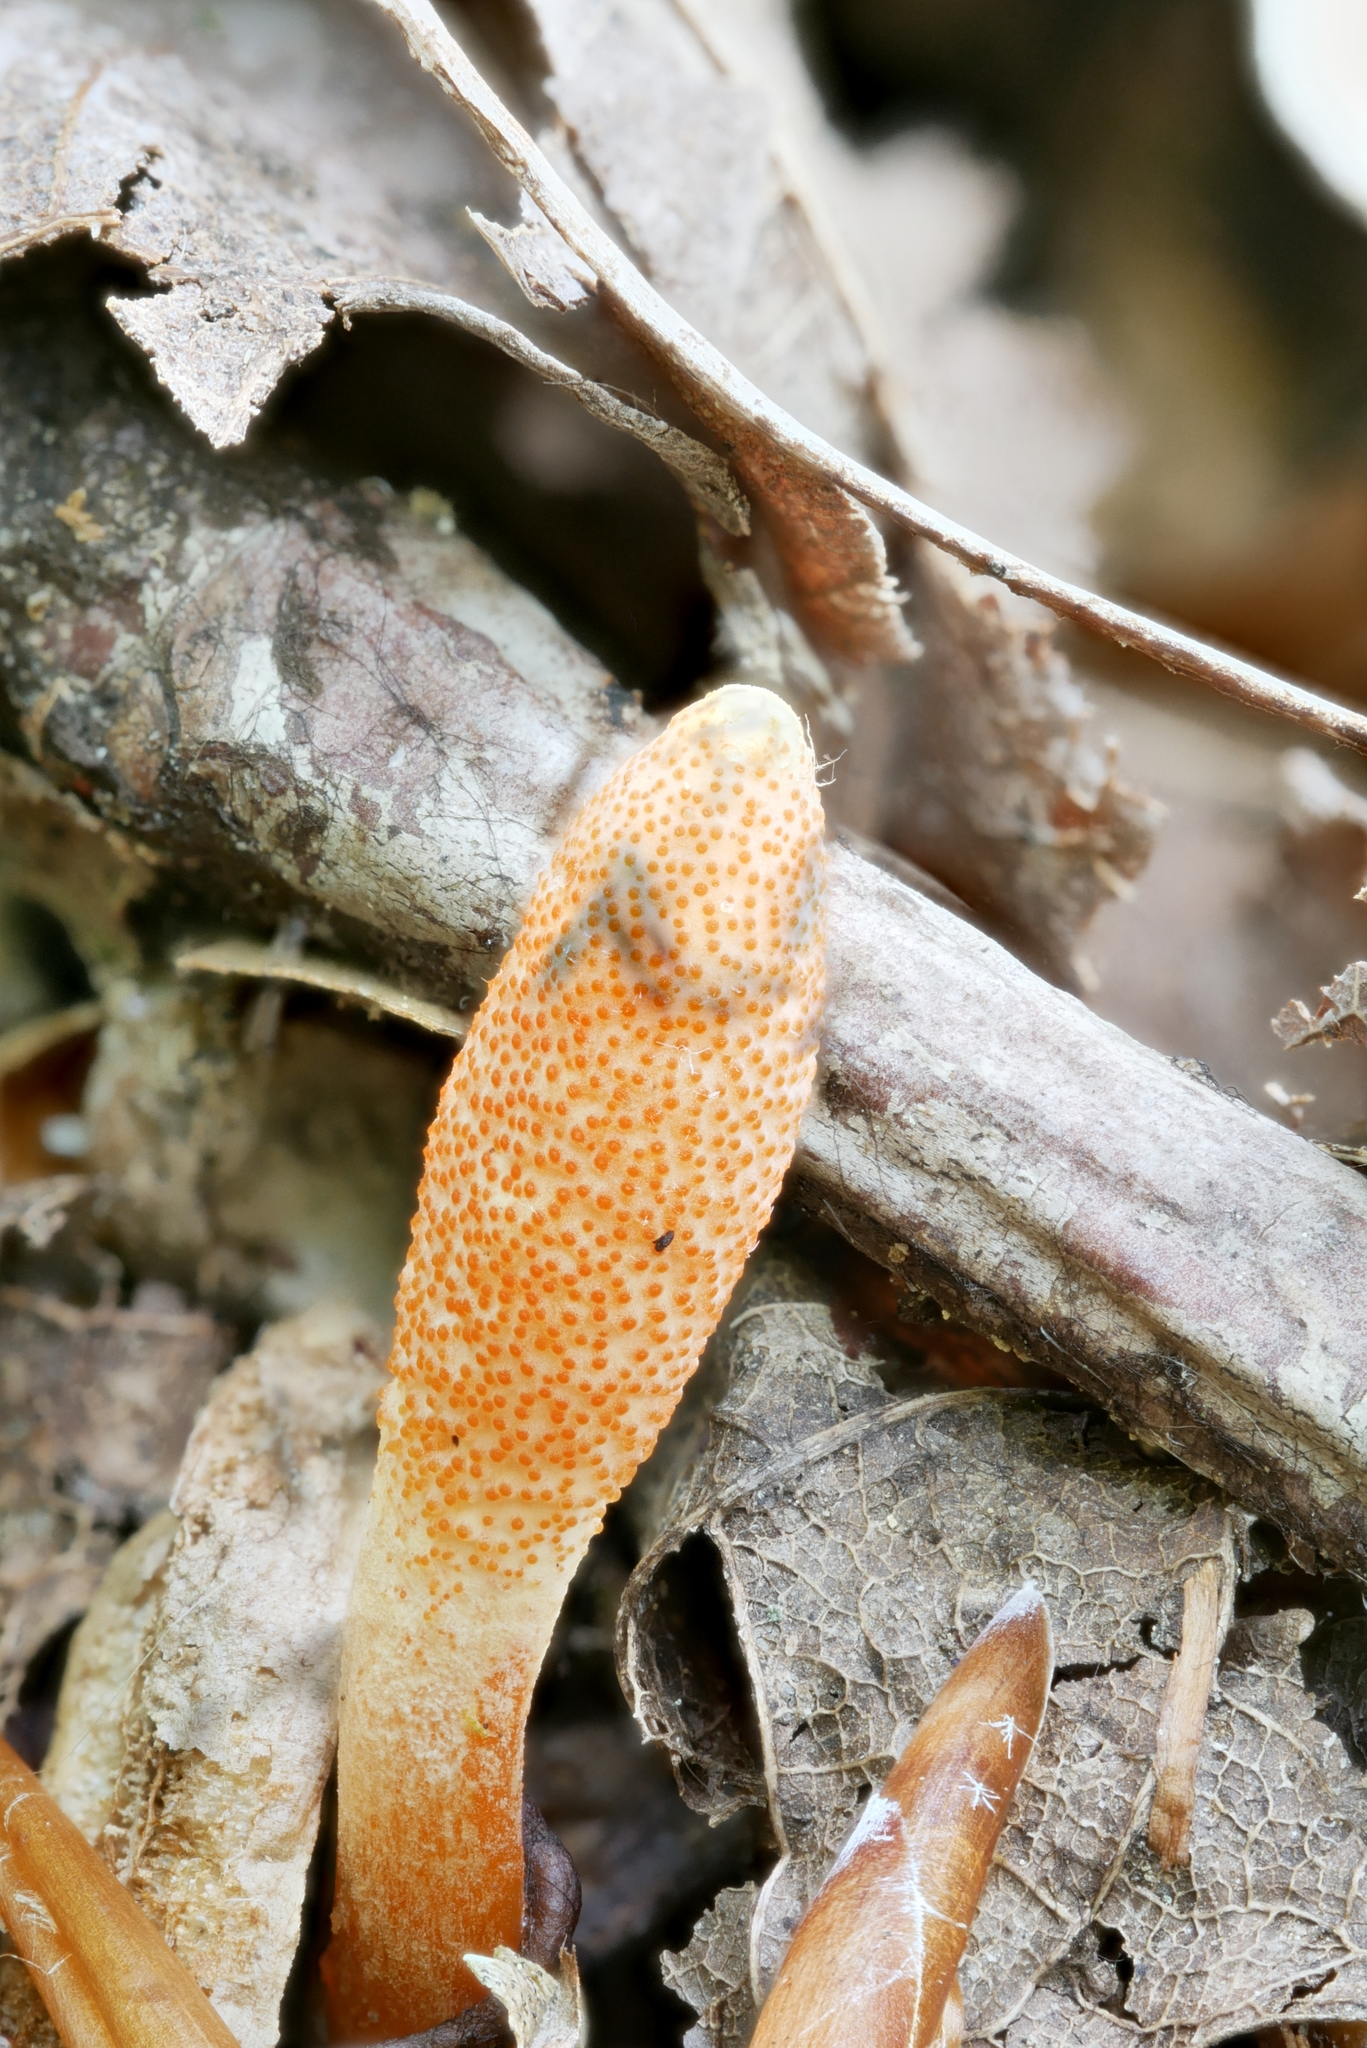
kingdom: Fungi
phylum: Ascomycota
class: Sordariomycetes
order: Hypocreales
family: Cordycipitaceae
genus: Cordyceps
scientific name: Cordyceps militaris
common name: Scarlet caterpillar fungus
